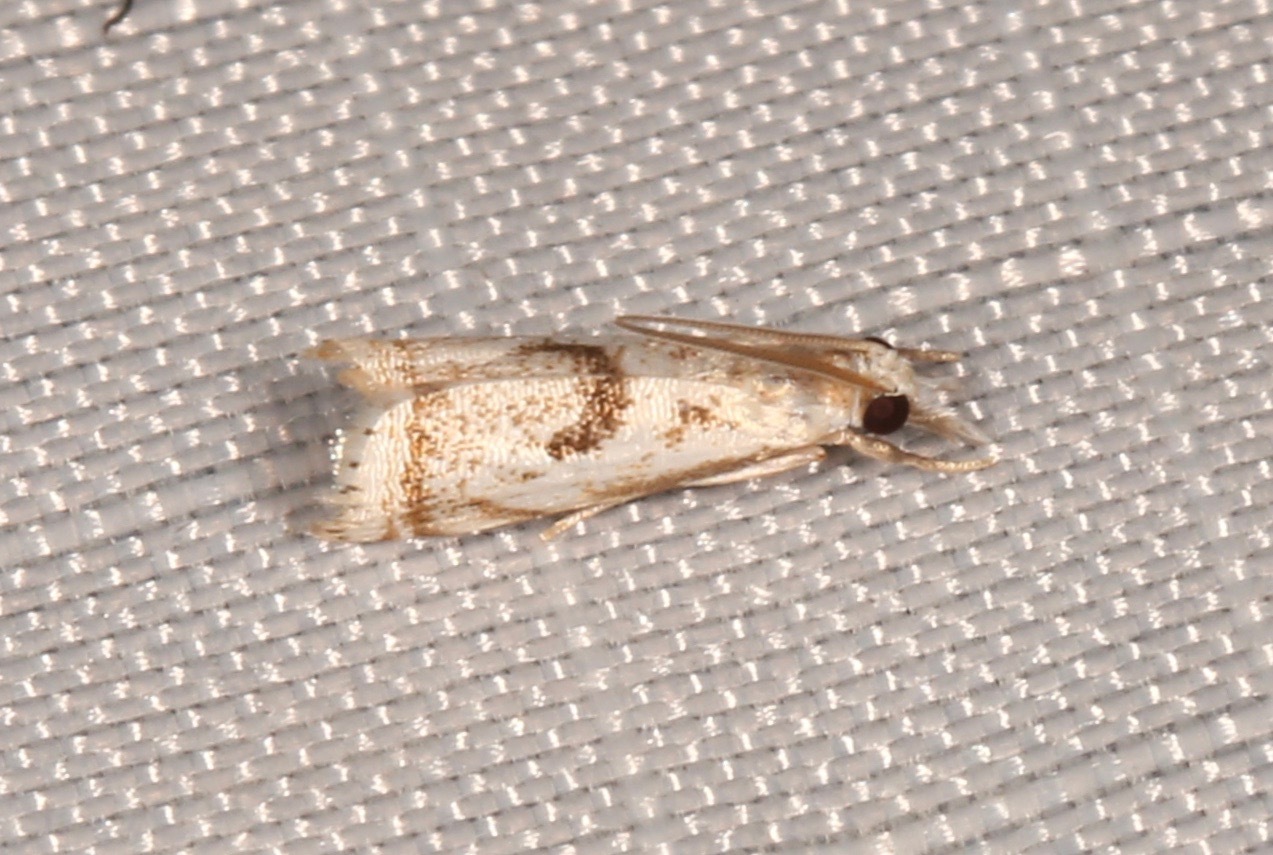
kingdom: Animalia
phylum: Arthropoda
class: Insecta
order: Lepidoptera
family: Crambidae
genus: Microcrambus
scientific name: Microcrambus elegans
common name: Elegant grass-veneer
